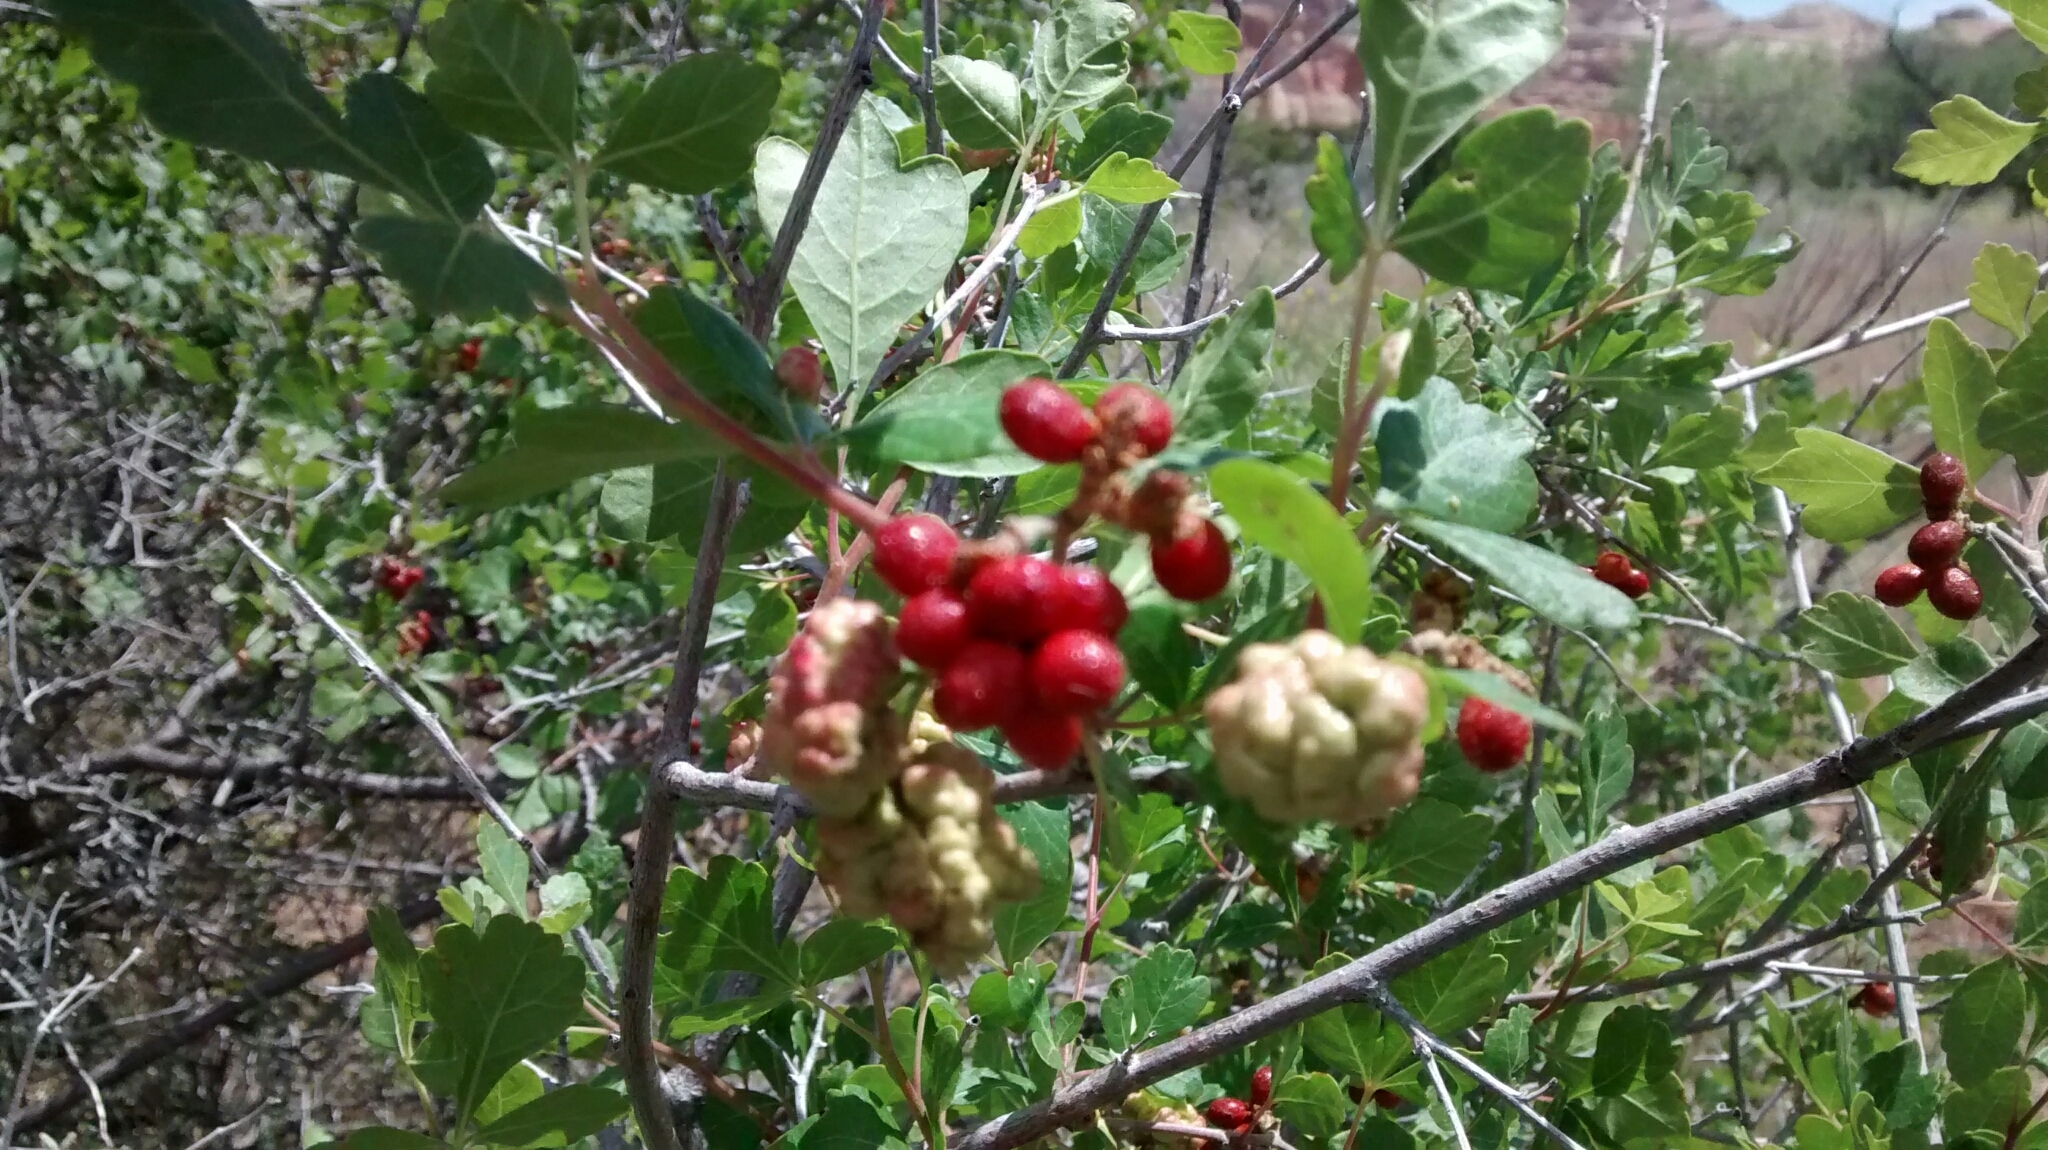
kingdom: Plantae
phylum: Tracheophyta
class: Magnoliopsida
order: Sapindales
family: Anacardiaceae
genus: Rhus
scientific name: Rhus aromatica
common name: Aromatic sumac
